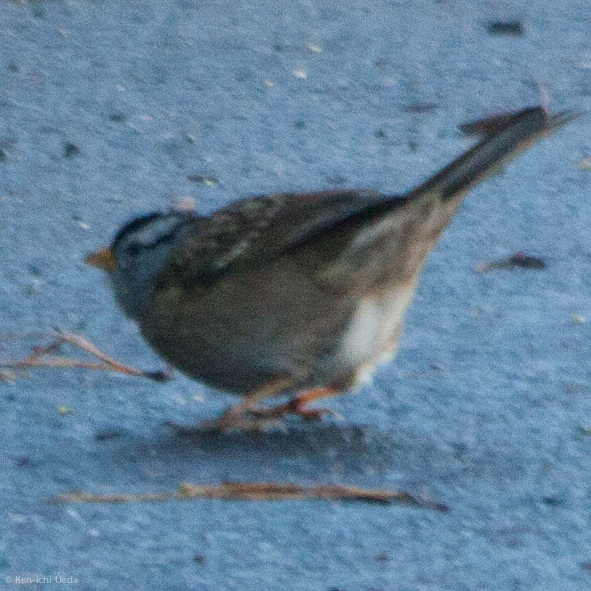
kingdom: Animalia
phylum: Chordata
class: Aves
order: Passeriformes
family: Passerellidae
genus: Zonotrichia
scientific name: Zonotrichia leucophrys
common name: White-crowned sparrow
